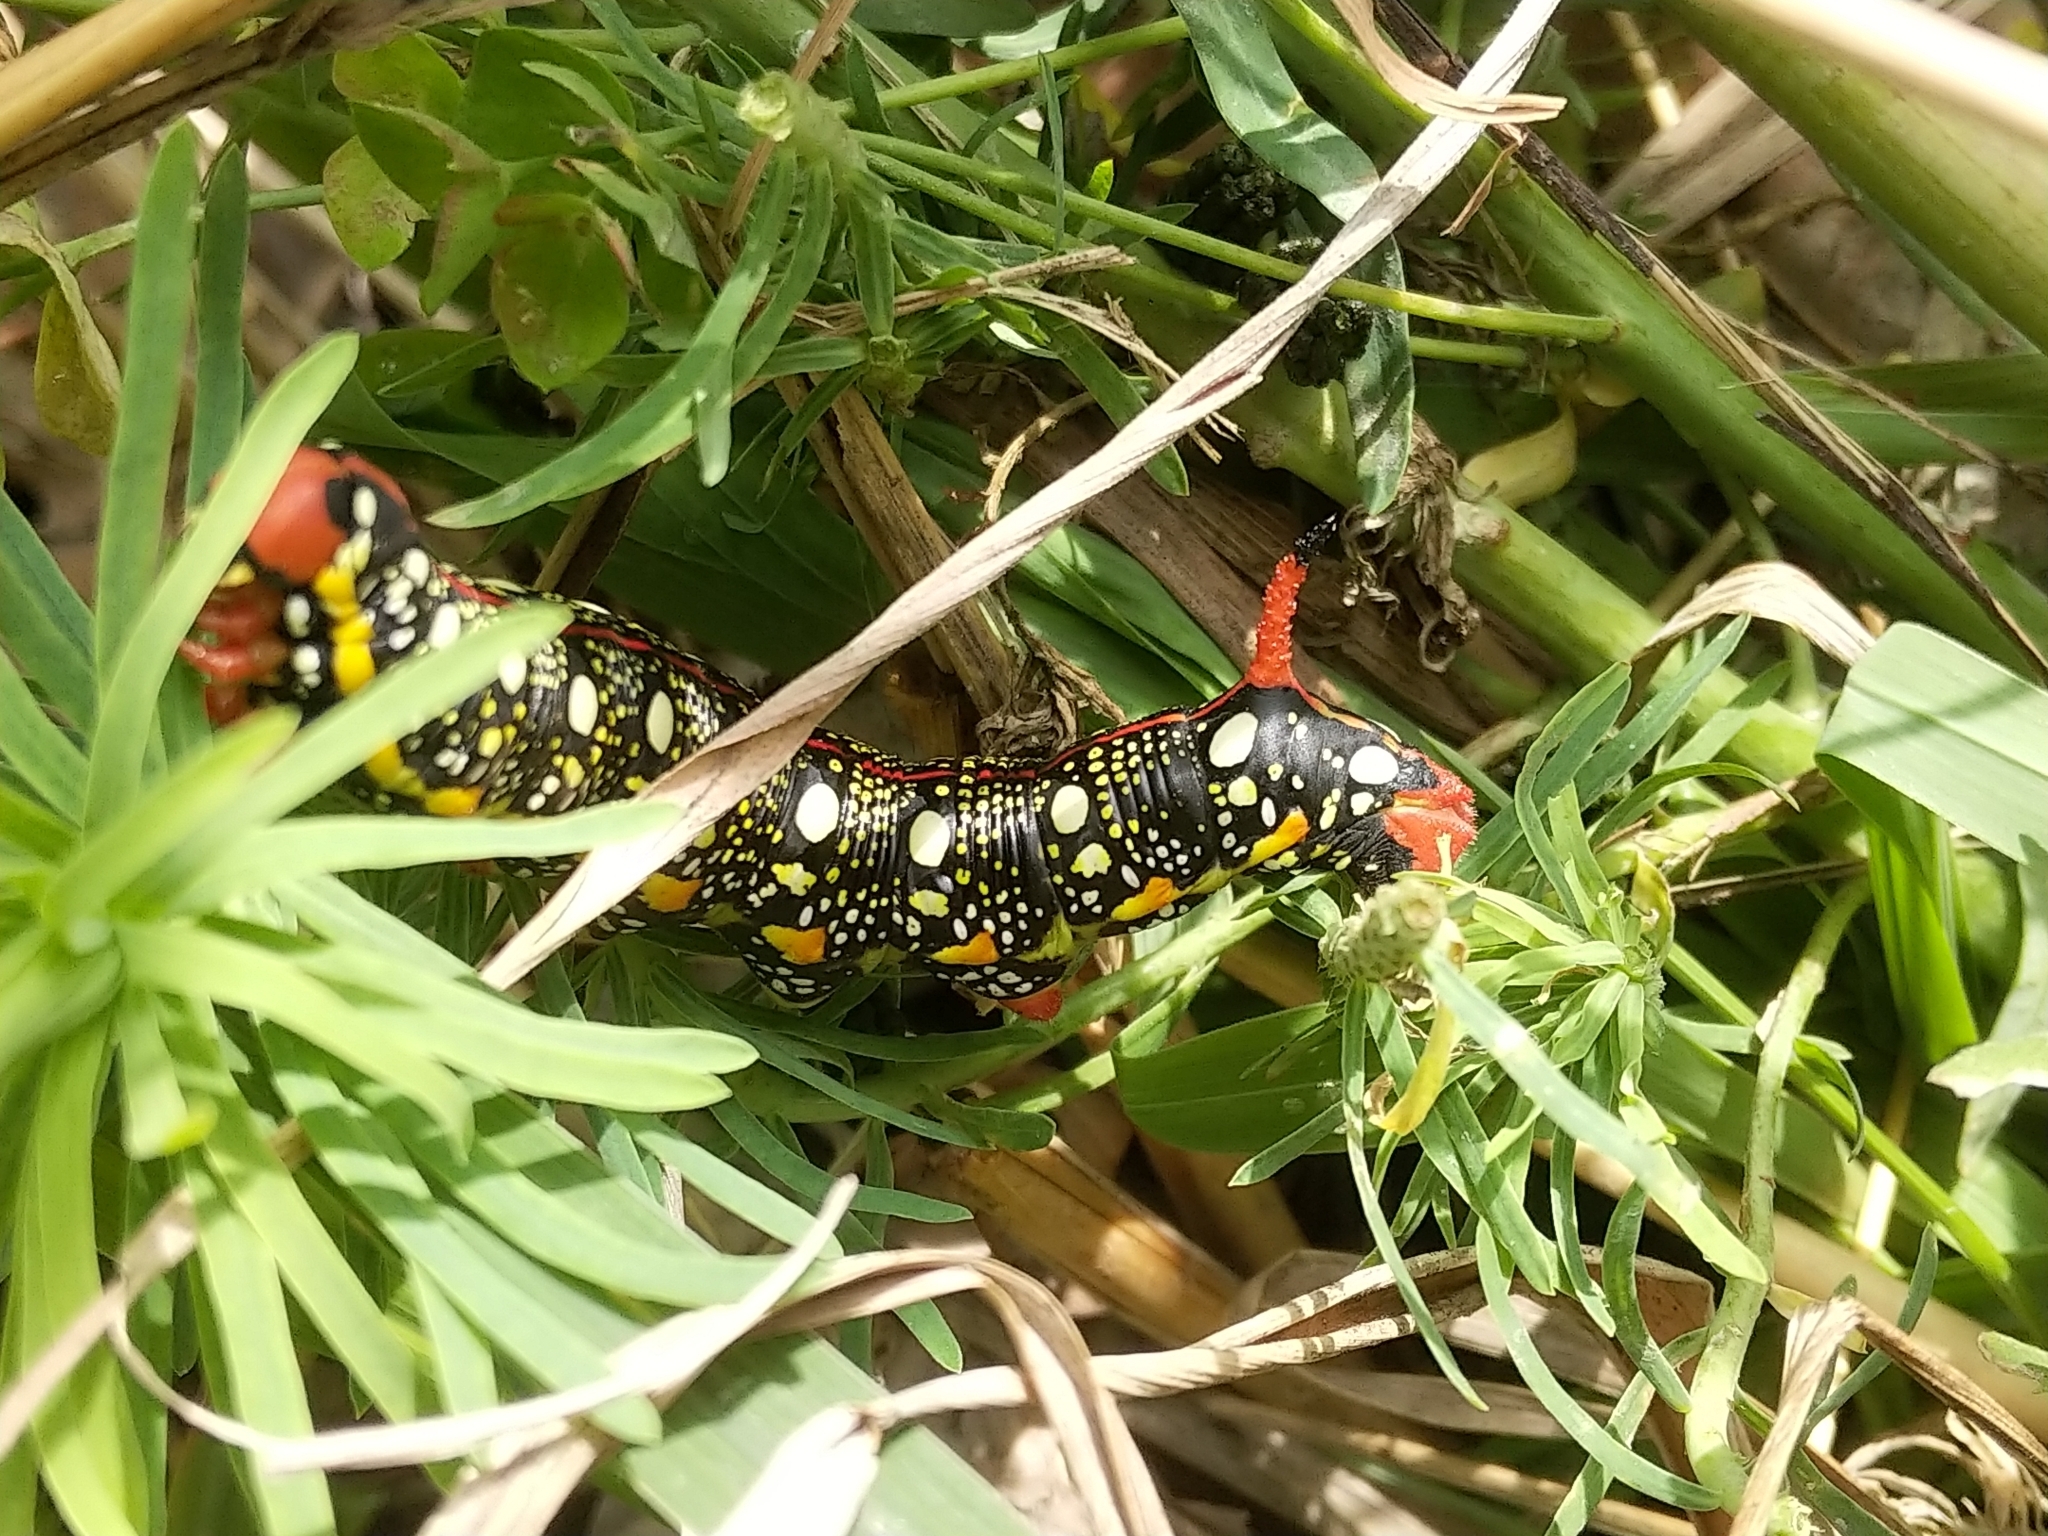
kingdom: Animalia
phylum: Arthropoda
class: Insecta
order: Lepidoptera
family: Sphingidae
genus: Hyles
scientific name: Hyles euphorbiae
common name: Spurge hawk-moth
